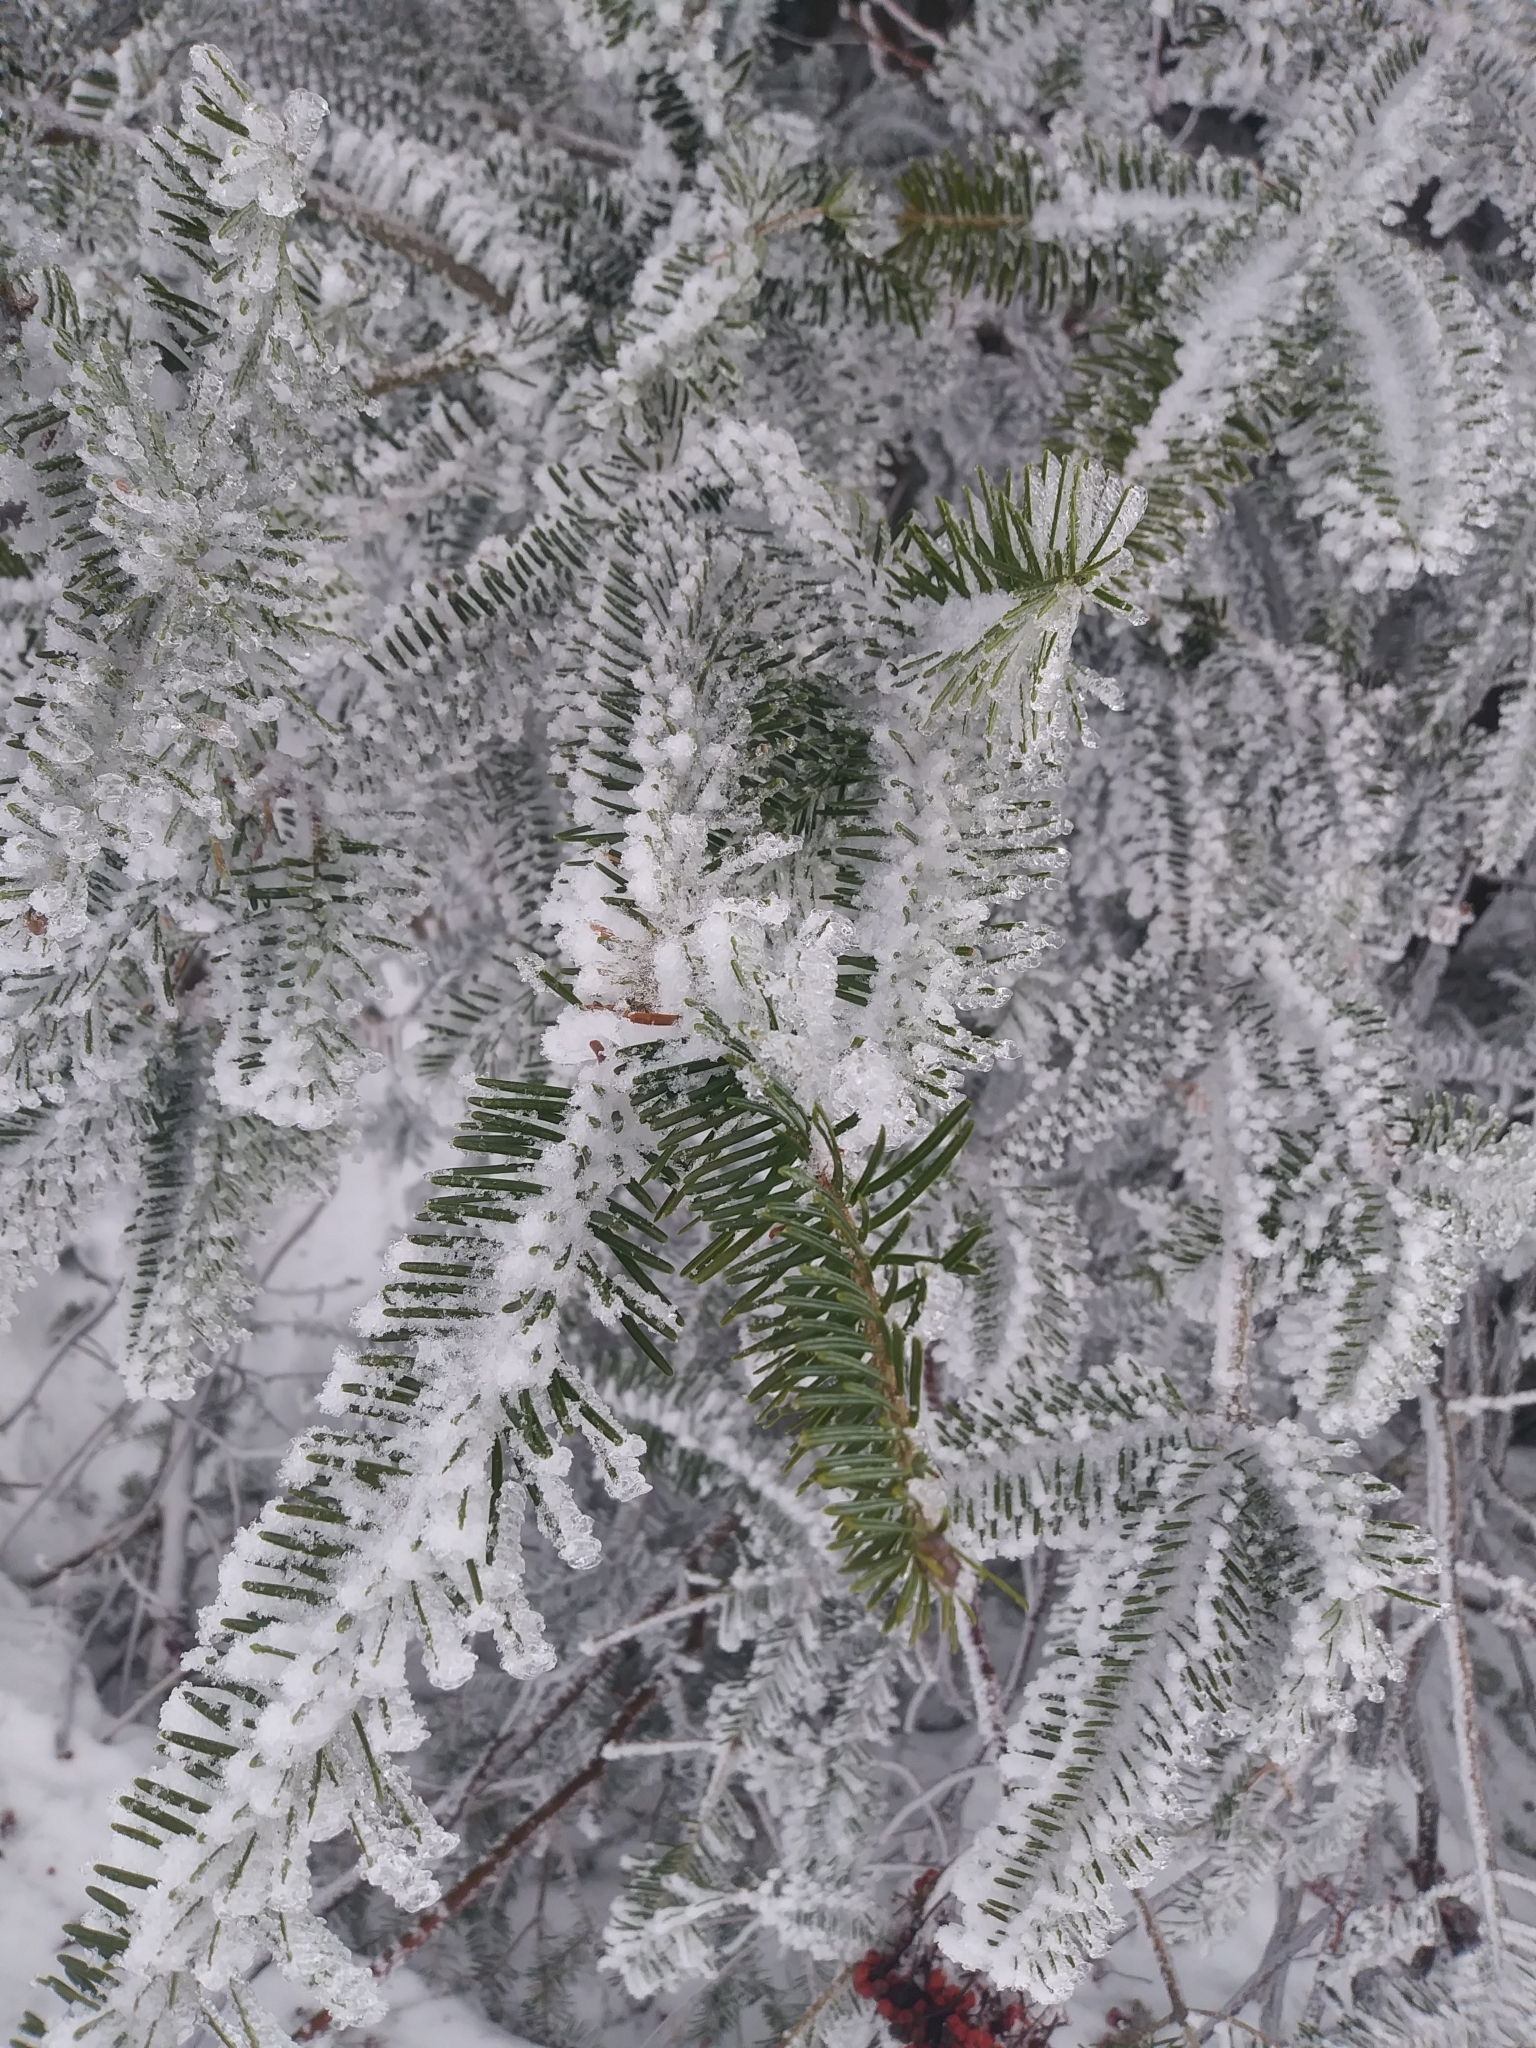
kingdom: Plantae
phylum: Tracheophyta
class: Pinopsida
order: Pinales
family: Pinaceae
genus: Abies
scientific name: Abies balsamea
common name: Balsam fir
